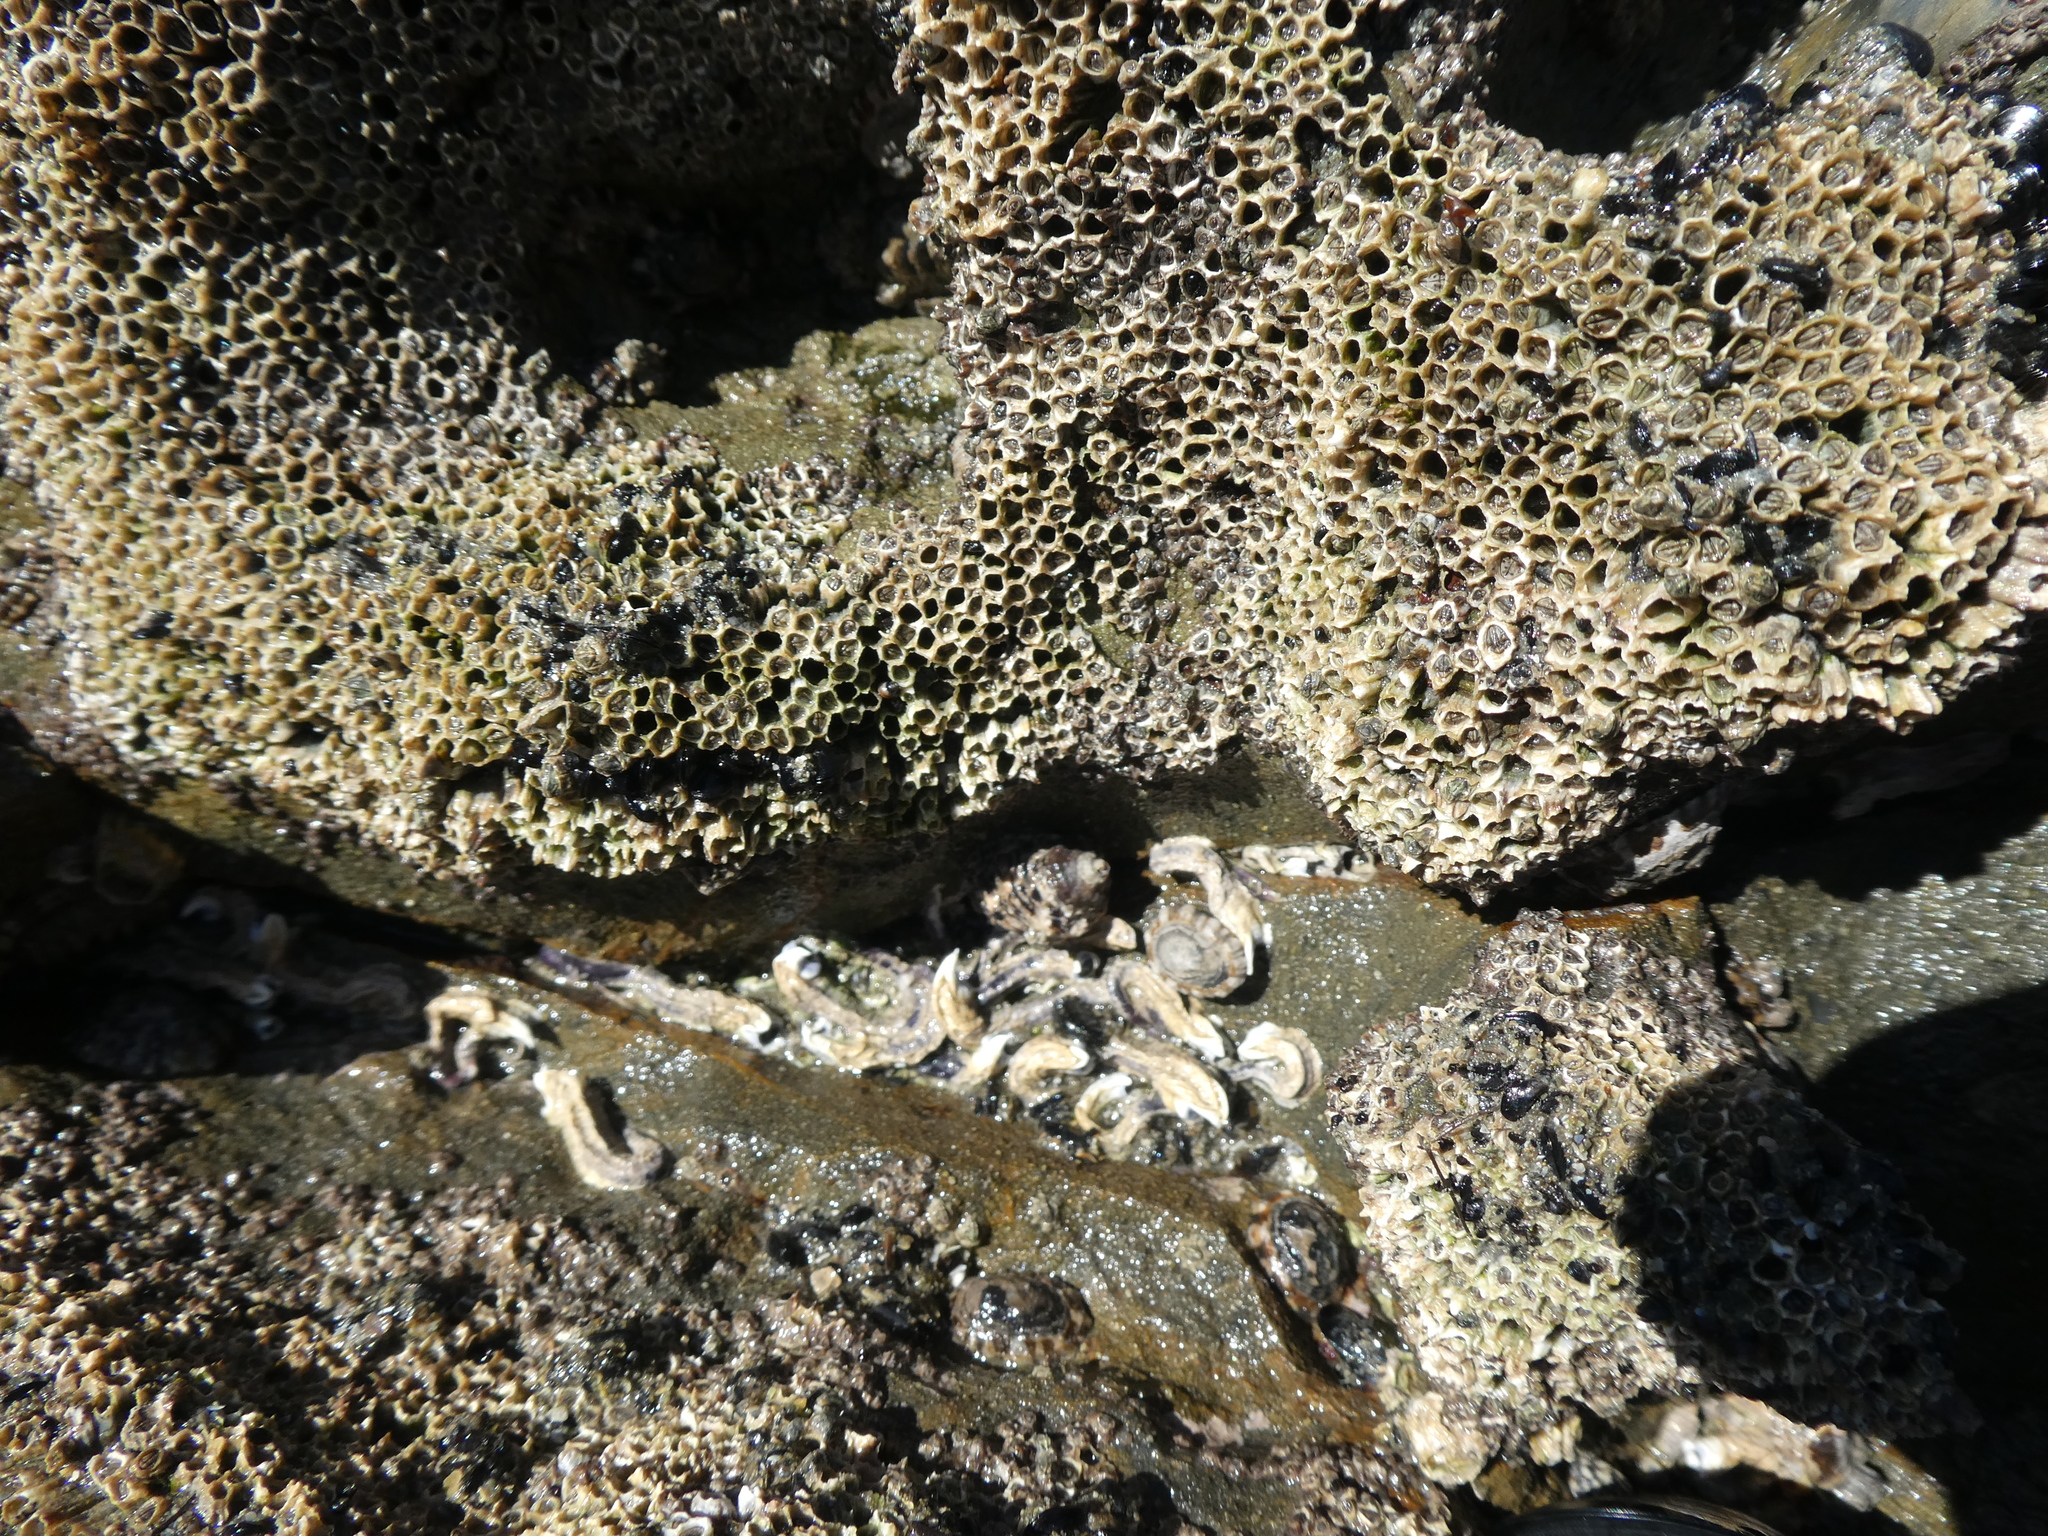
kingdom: Animalia
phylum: Annelida
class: Polychaeta
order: Sabellida
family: Serpulidae
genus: Spirobranchus
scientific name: Spirobranchus cariniferus
